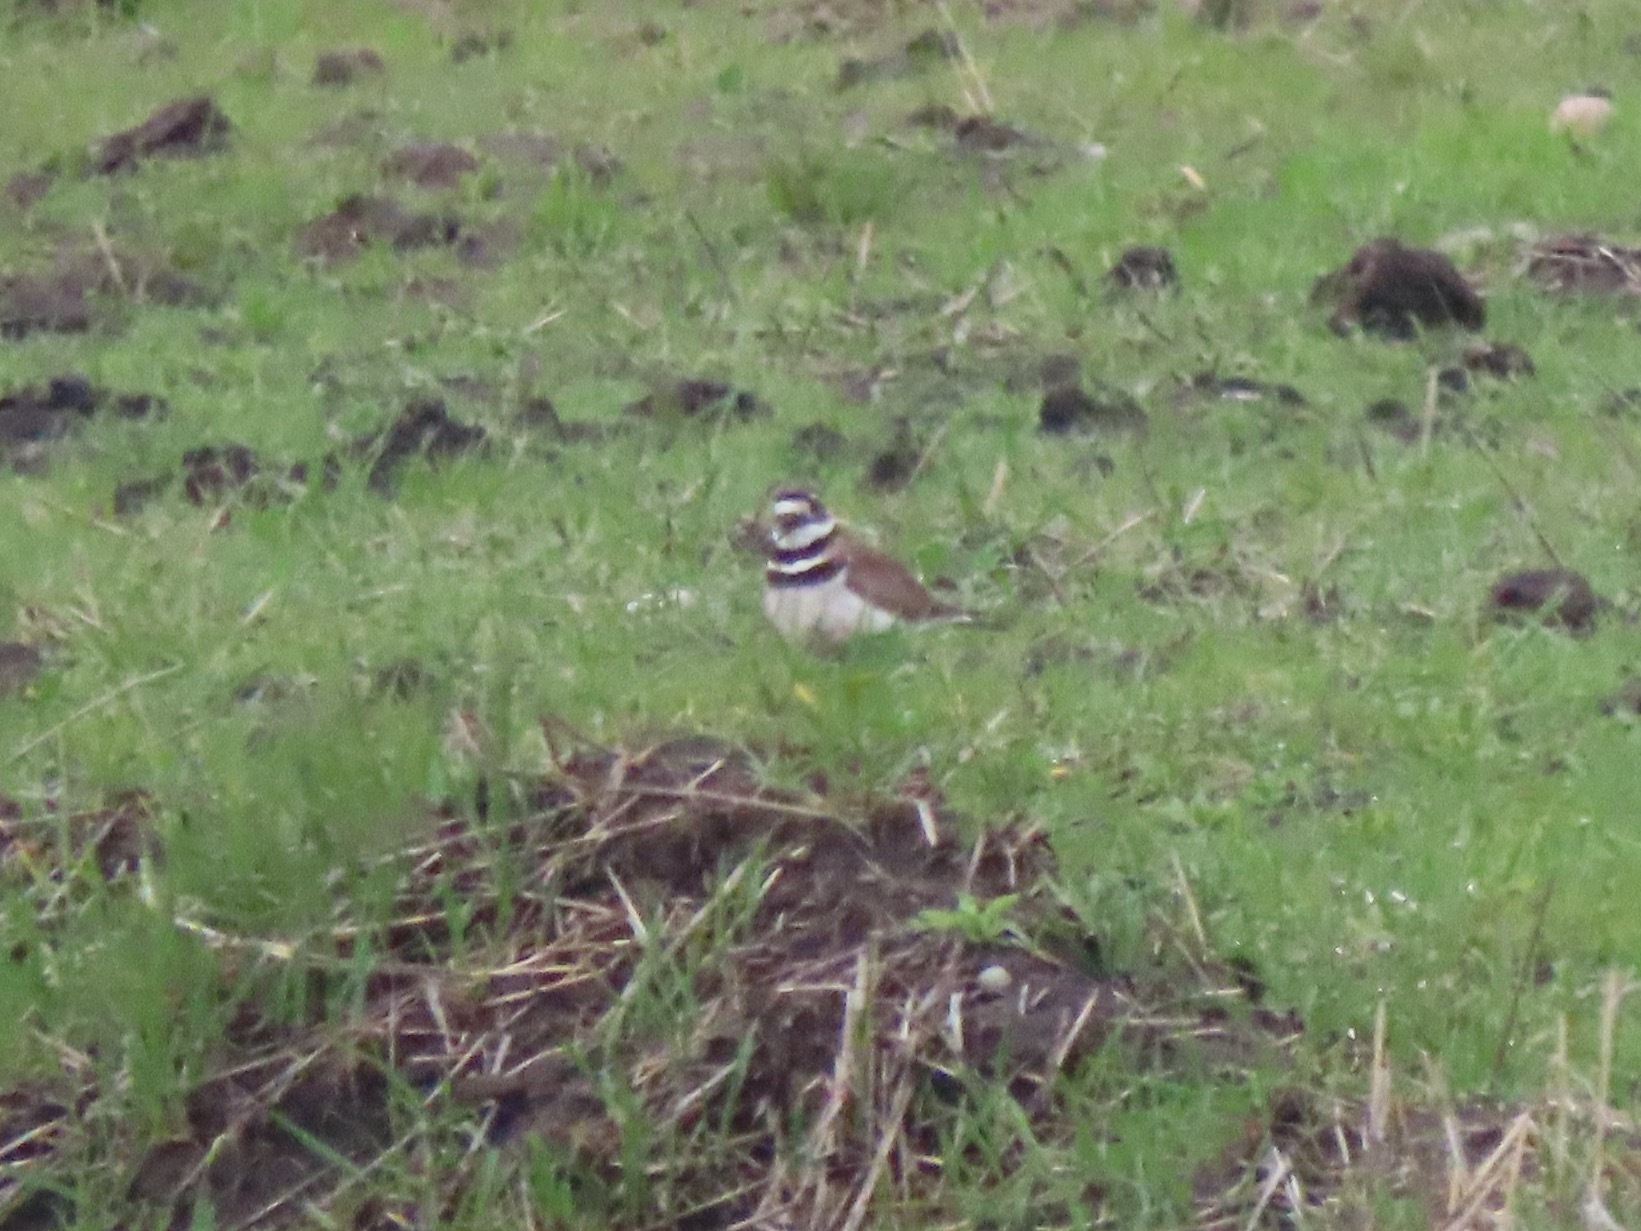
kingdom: Animalia
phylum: Chordata
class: Aves
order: Charadriiformes
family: Charadriidae
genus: Charadrius
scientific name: Charadrius vociferus
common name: Killdeer
